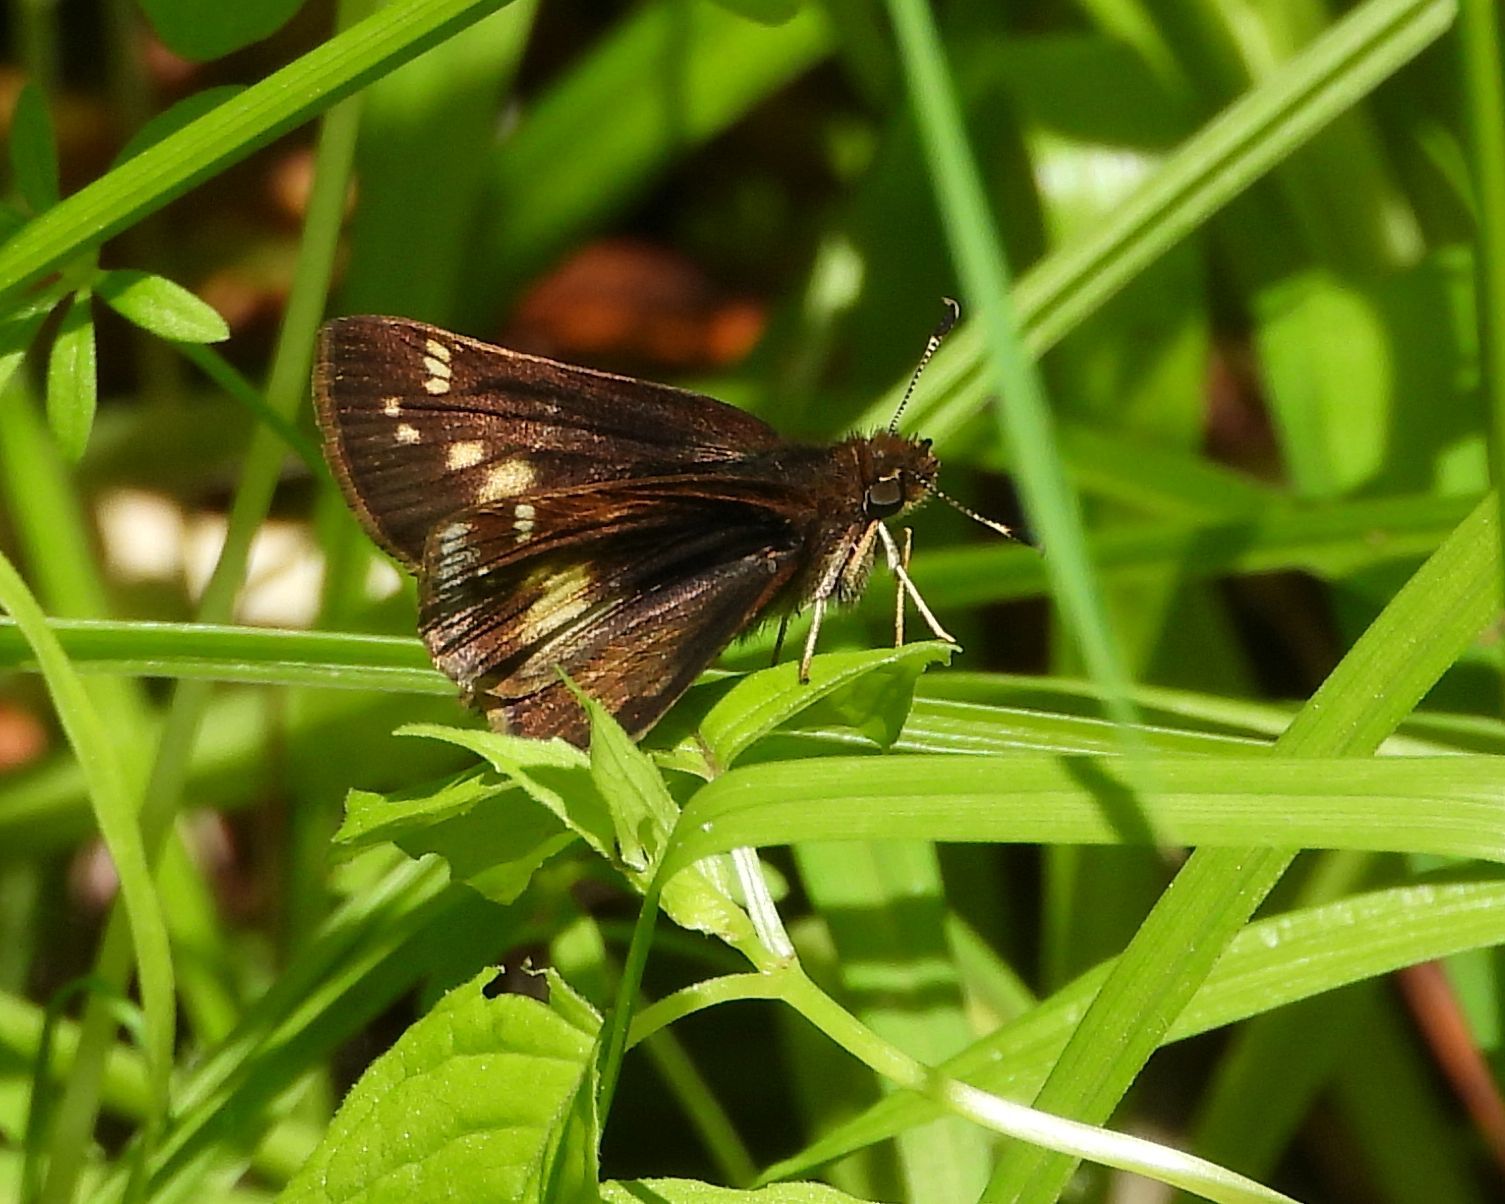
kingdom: Animalia
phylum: Arthropoda
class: Insecta
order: Lepidoptera
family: Hesperiidae
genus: Lon
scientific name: Lon hobomok
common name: Hobomok skipper
